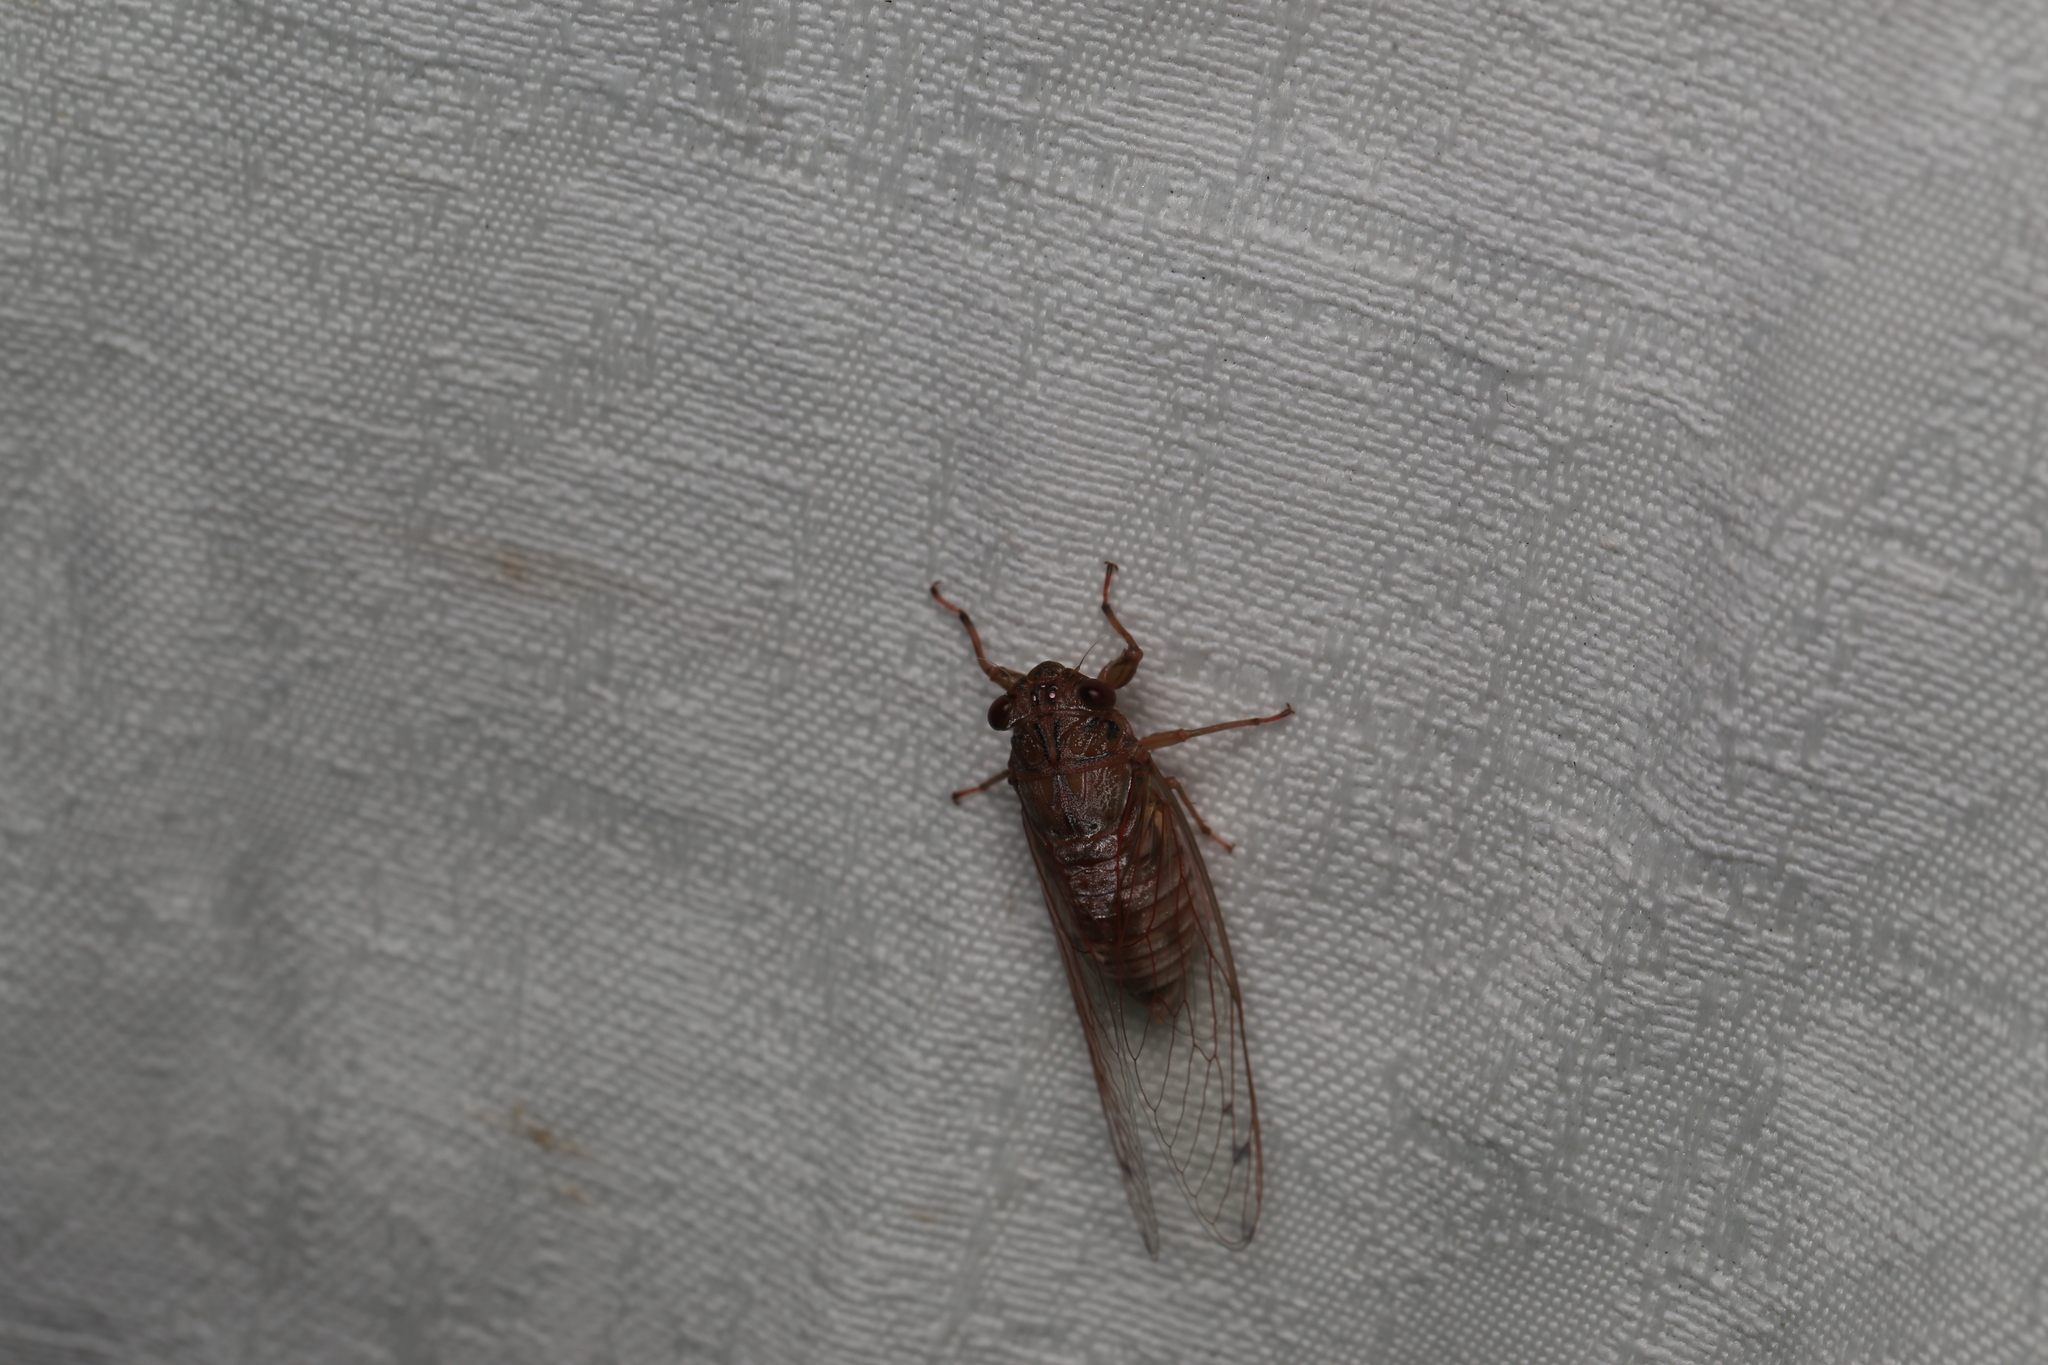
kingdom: Animalia
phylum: Arthropoda
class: Insecta
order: Hemiptera
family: Cicadidae
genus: Tamasa
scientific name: Tamasa tristigma
